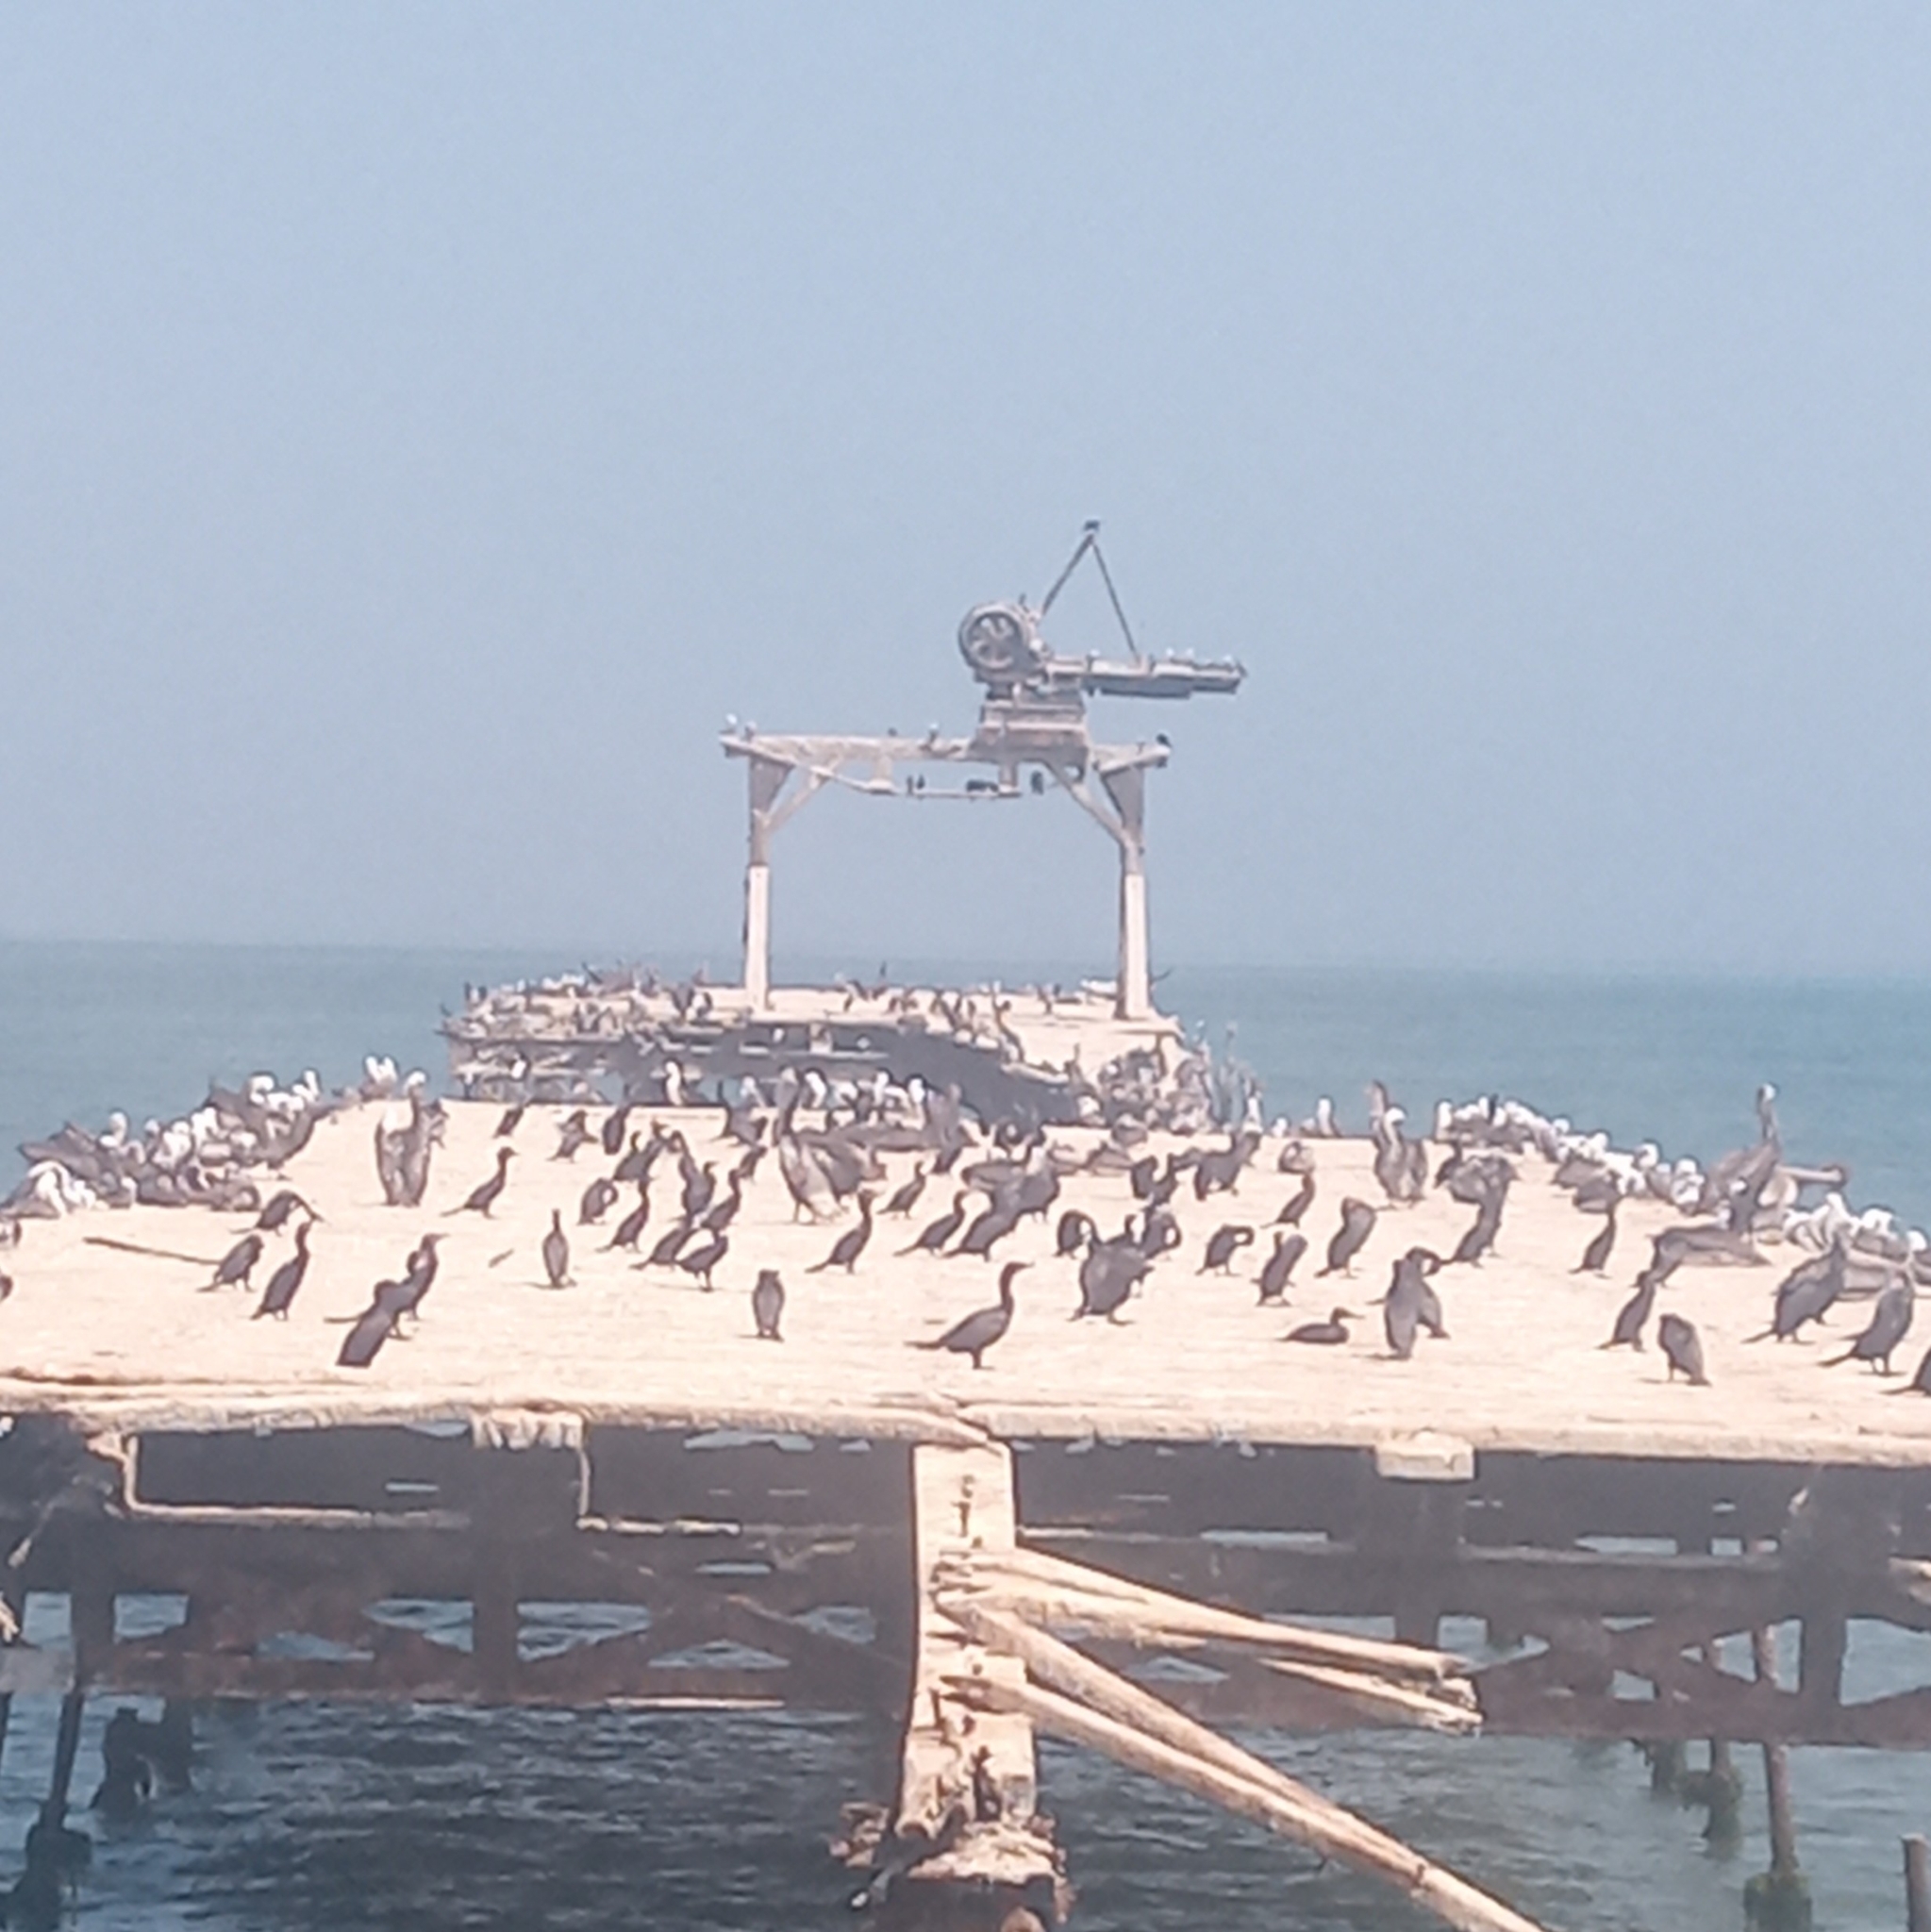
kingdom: Animalia
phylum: Chordata
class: Aves
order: Suliformes
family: Phalacrocoracidae
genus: Phalacrocorax
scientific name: Phalacrocorax brasilianus
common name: Neotropic cormorant
